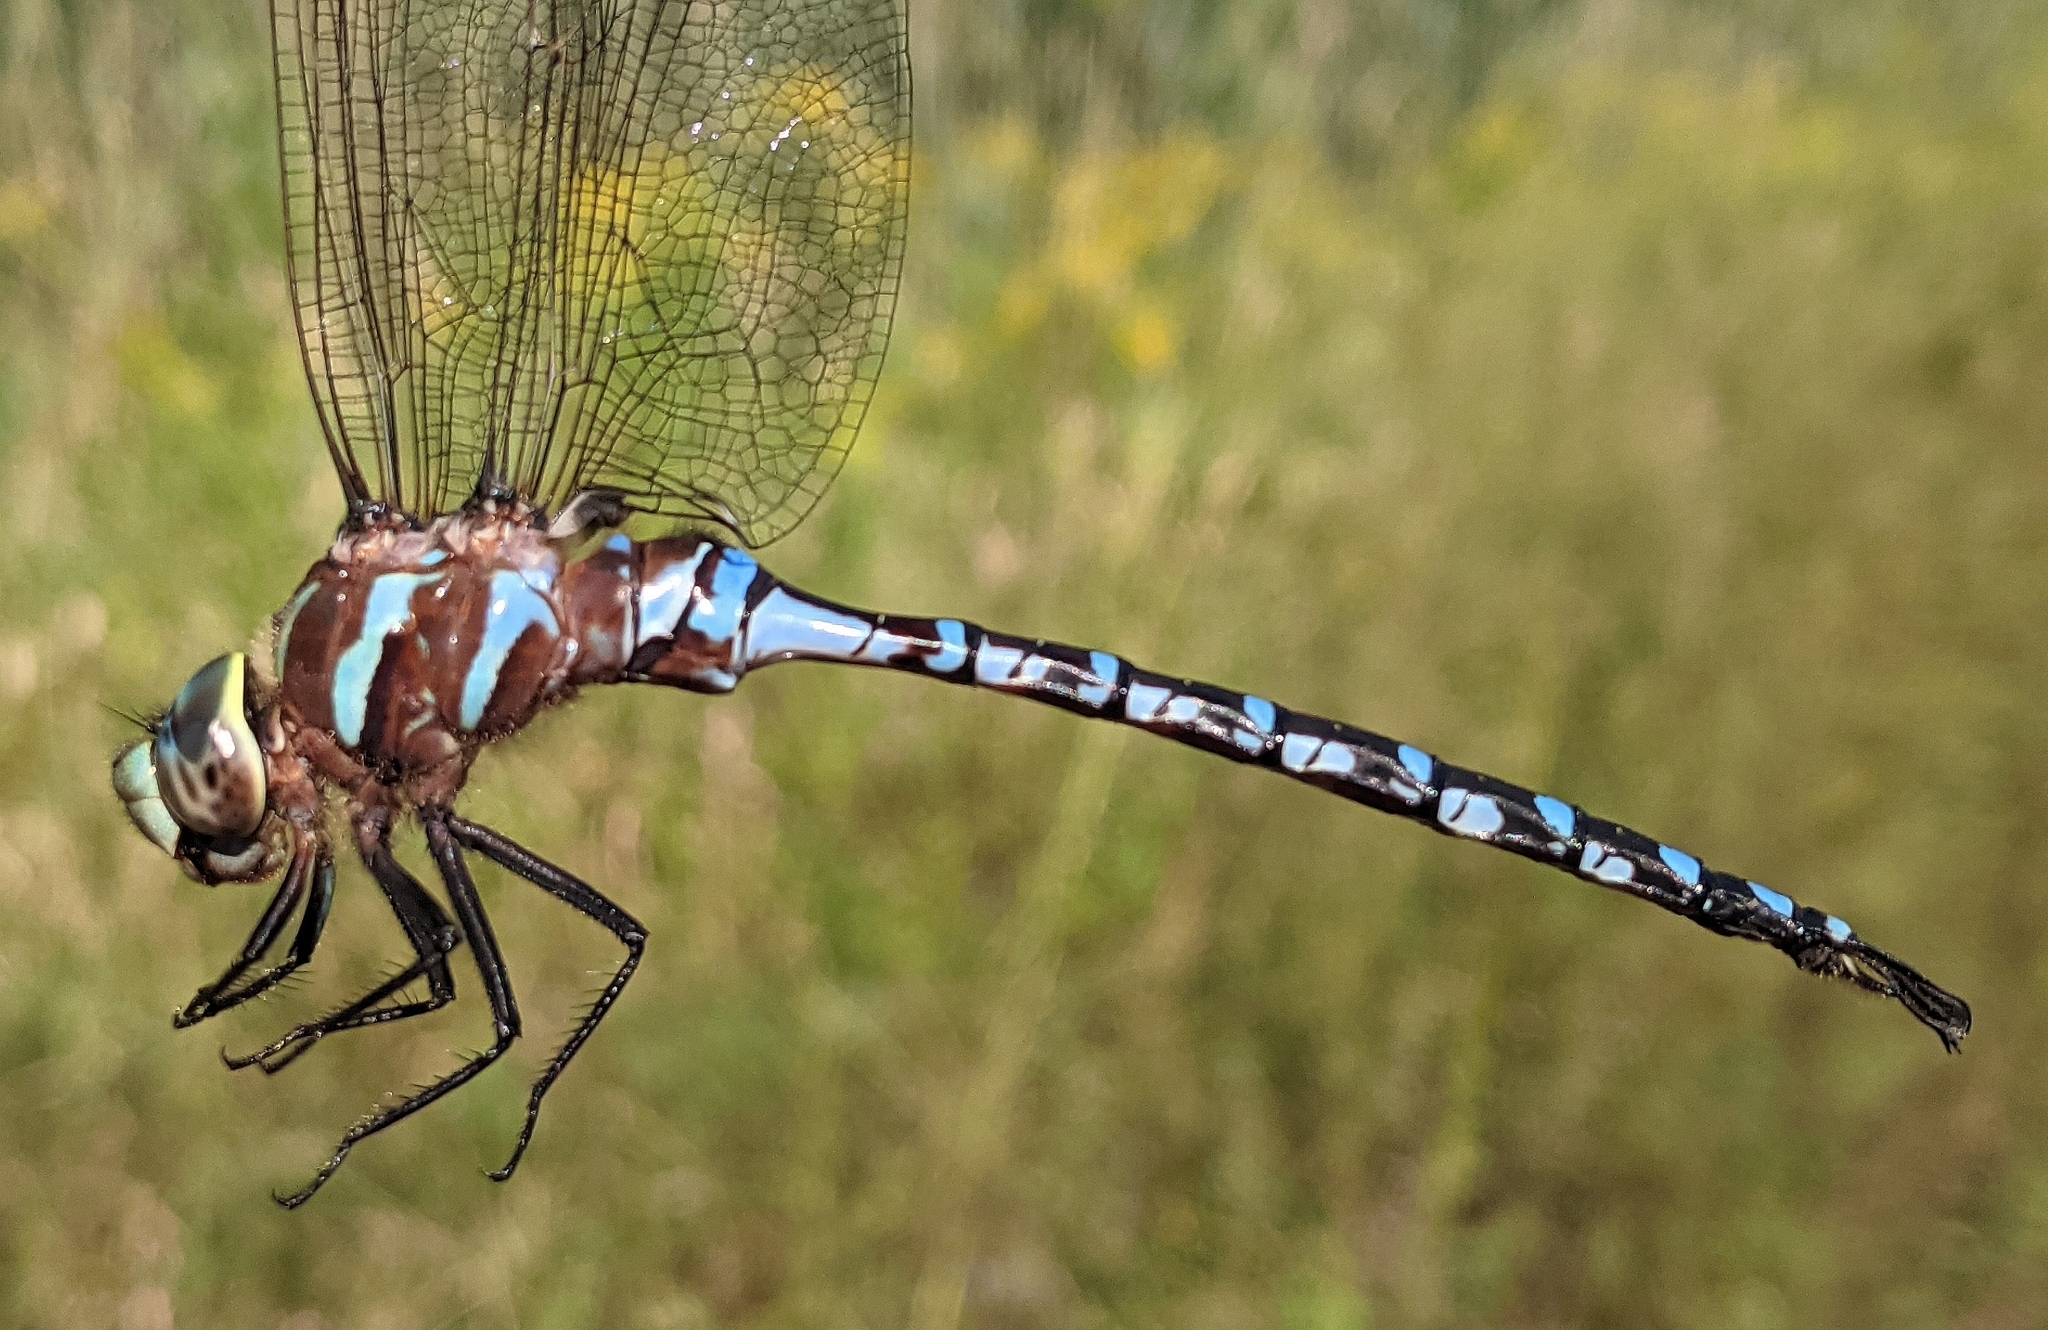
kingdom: Animalia
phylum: Arthropoda
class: Insecta
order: Odonata
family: Aeshnidae
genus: Aeshna
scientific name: Aeshna constricta
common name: Lance-tipped darner
